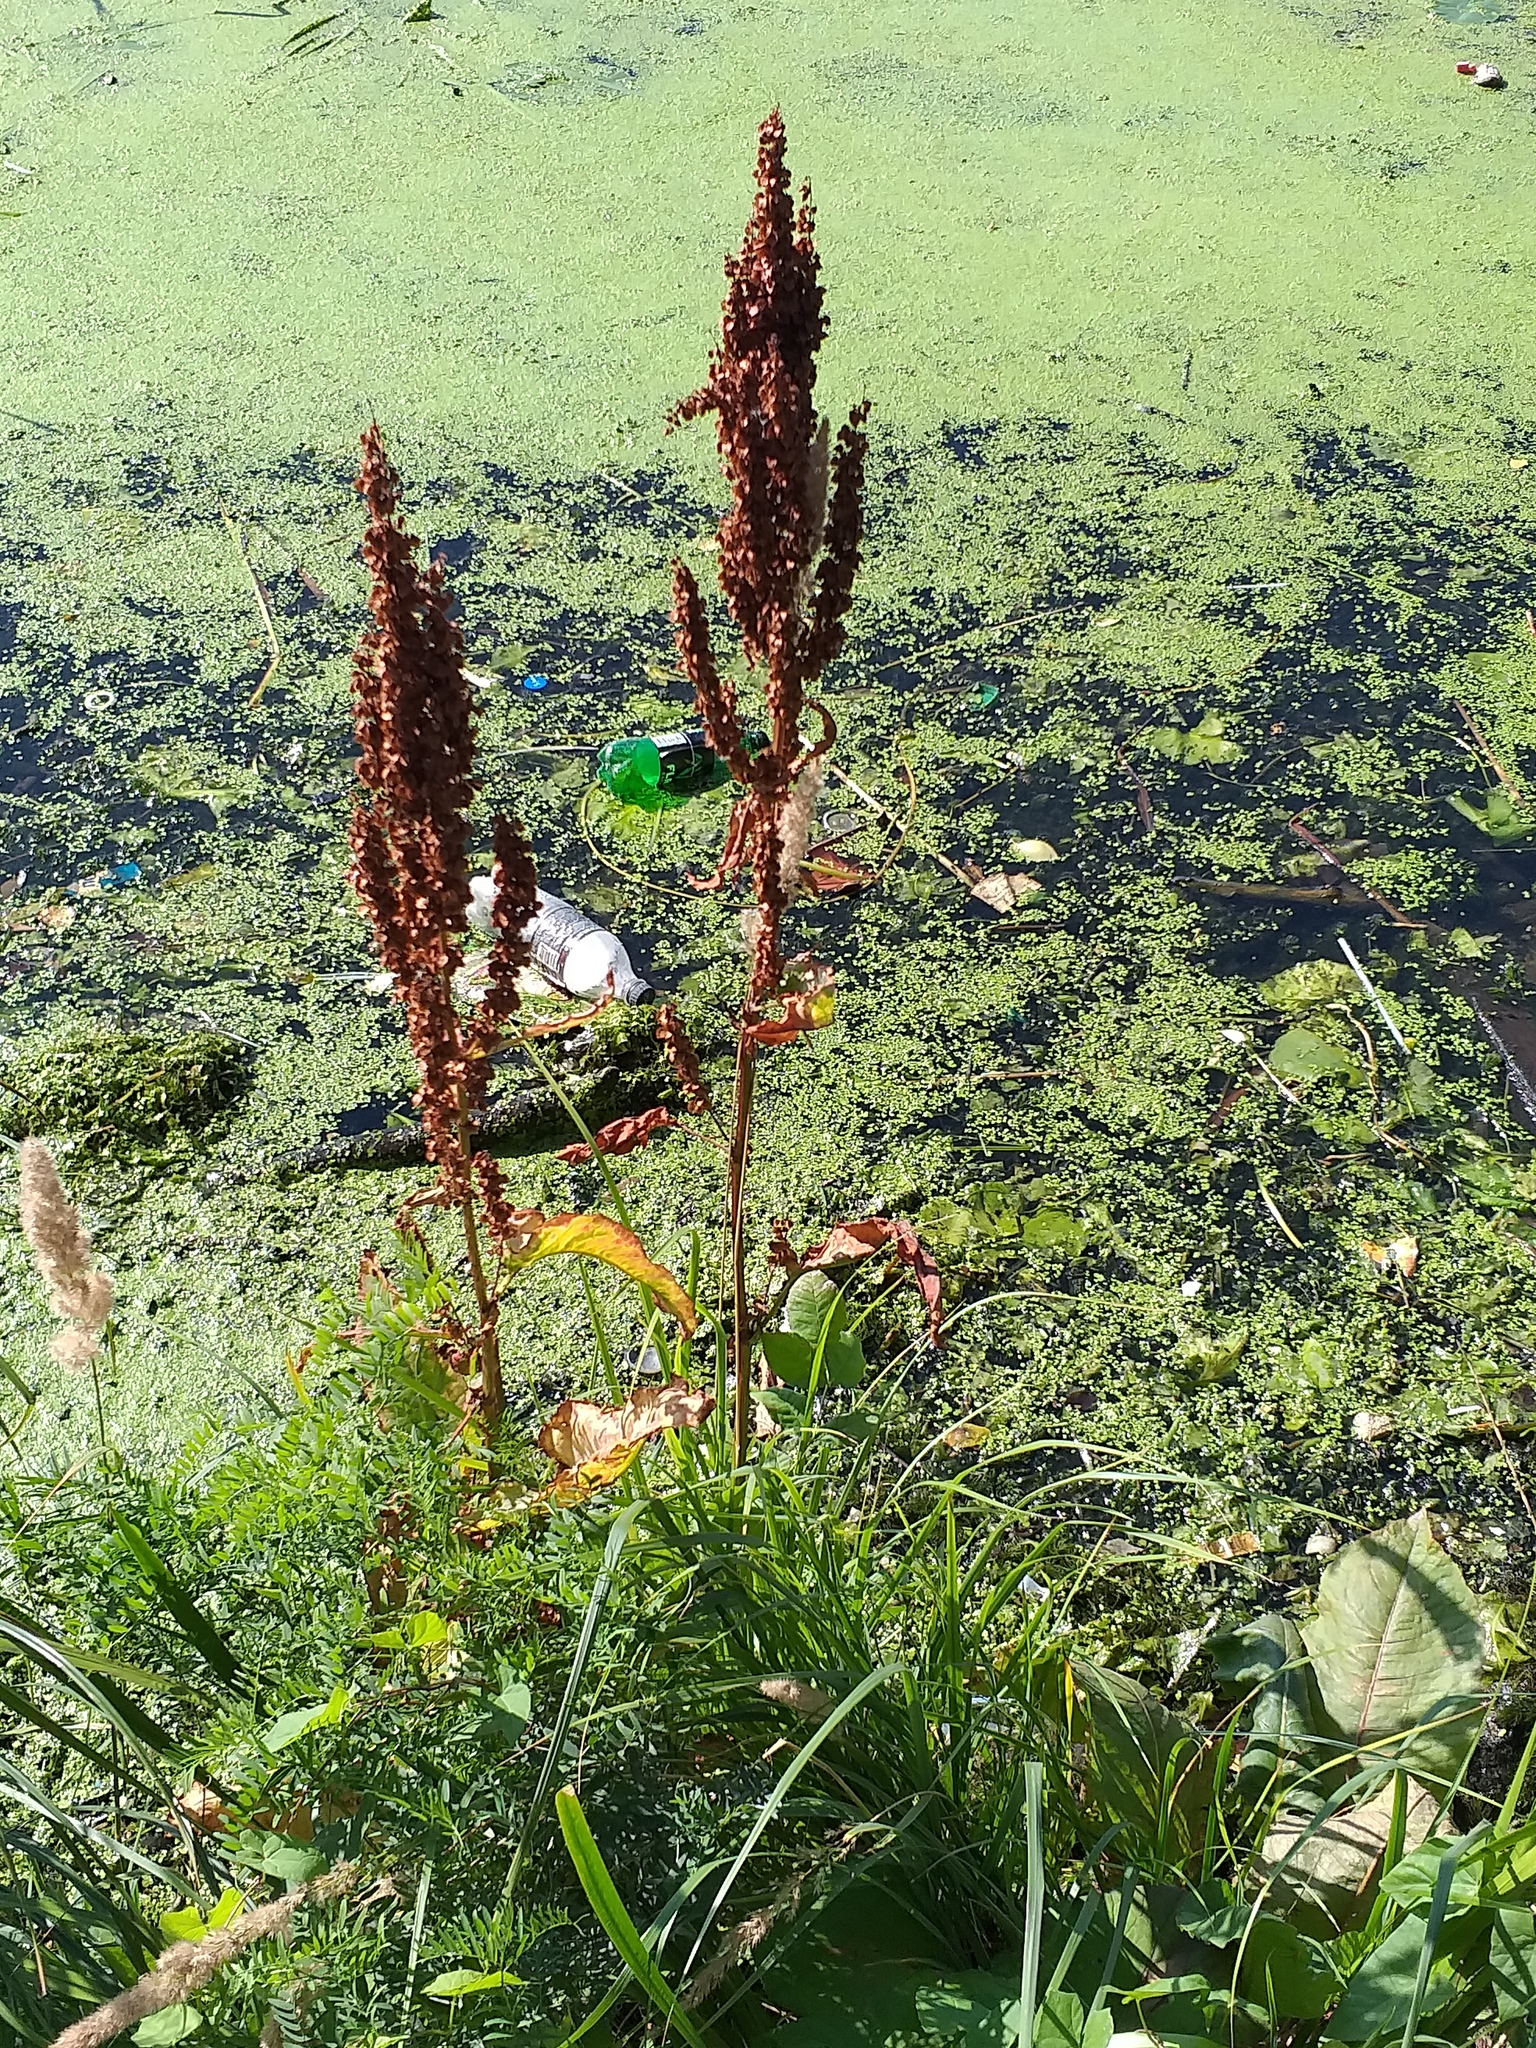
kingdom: Plantae
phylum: Tracheophyta
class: Magnoliopsida
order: Caryophyllales
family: Polygonaceae
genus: Rumex
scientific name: Rumex aquaticus
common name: Scottish dock
